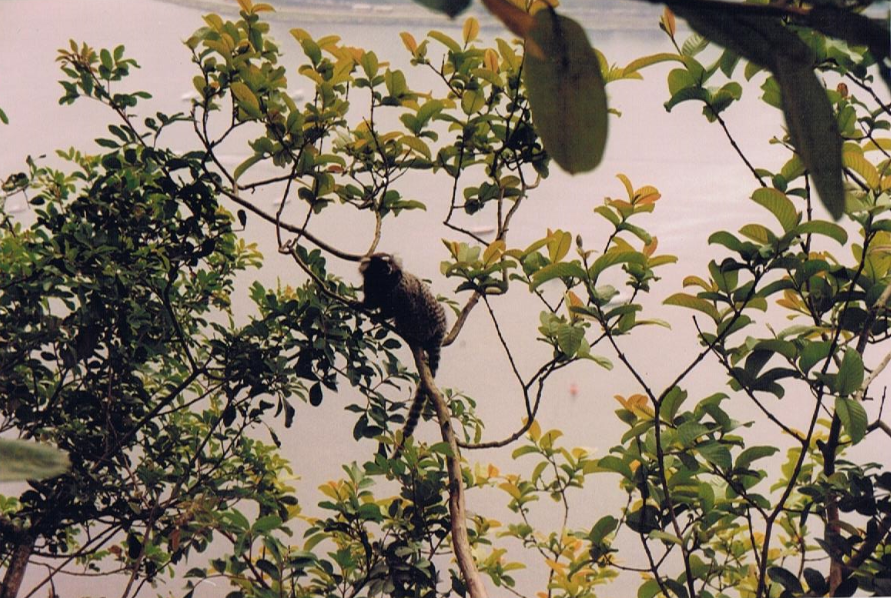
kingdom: Animalia
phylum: Chordata
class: Mammalia
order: Primates
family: Callitrichidae
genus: Callithrix
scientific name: Callithrix jacchus
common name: Common marmoset
